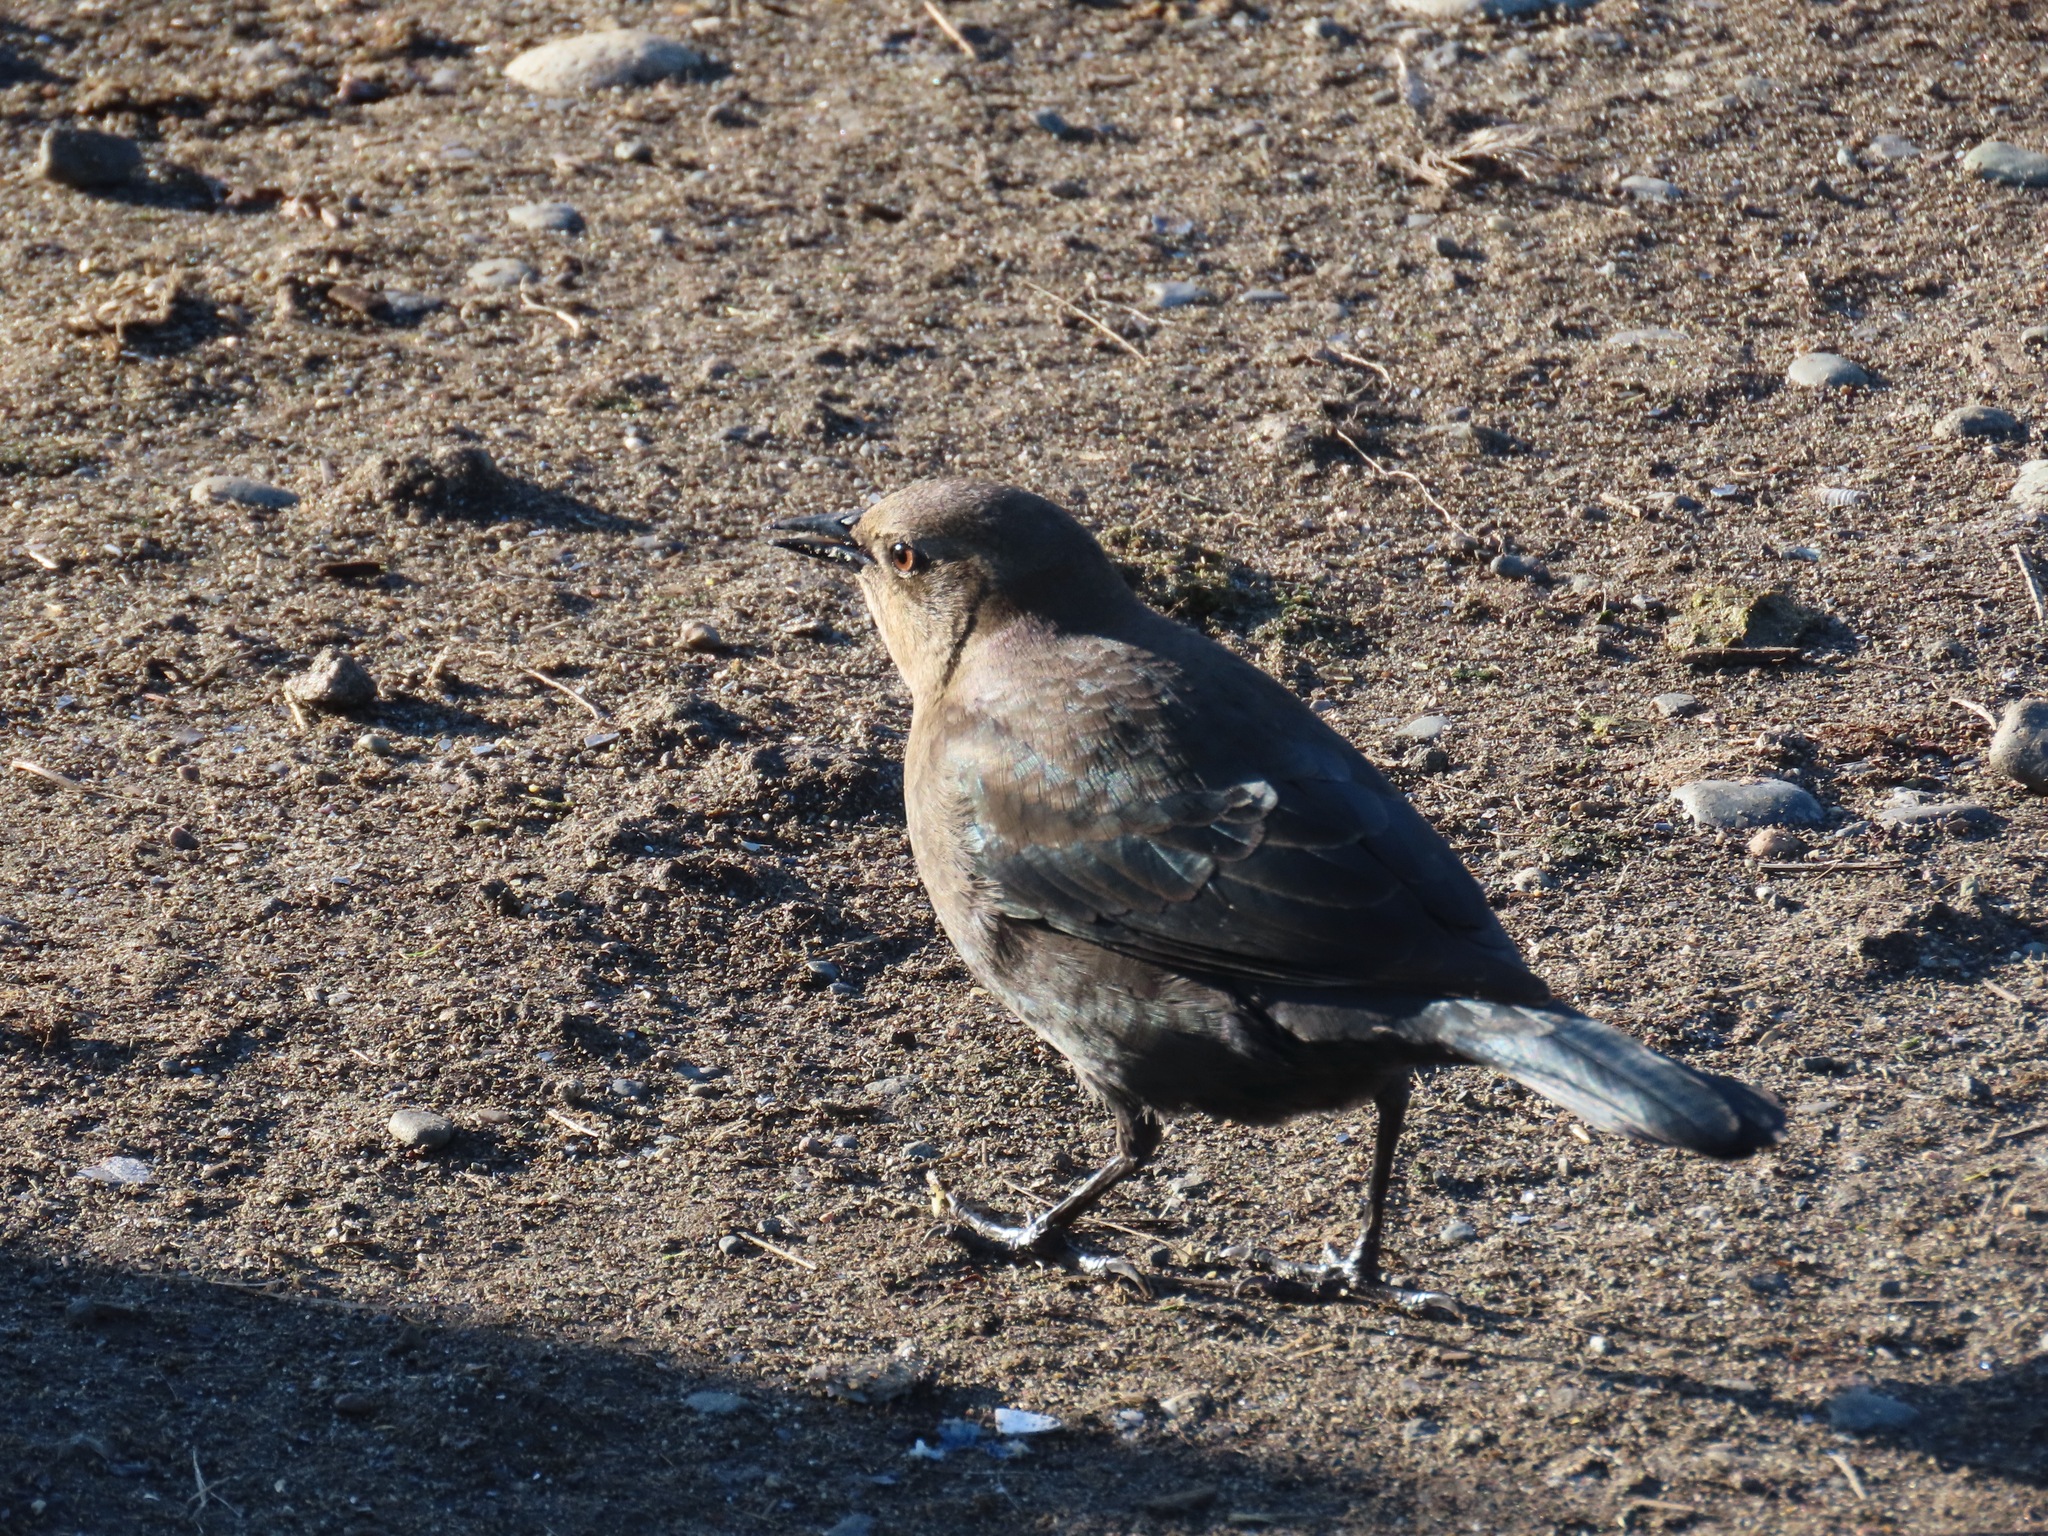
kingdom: Animalia
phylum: Chordata
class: Aves
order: Passeriformes
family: Icteridae
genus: Euphagus
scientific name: Euphagus cyanocephalus
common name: Brewer's blackbird
